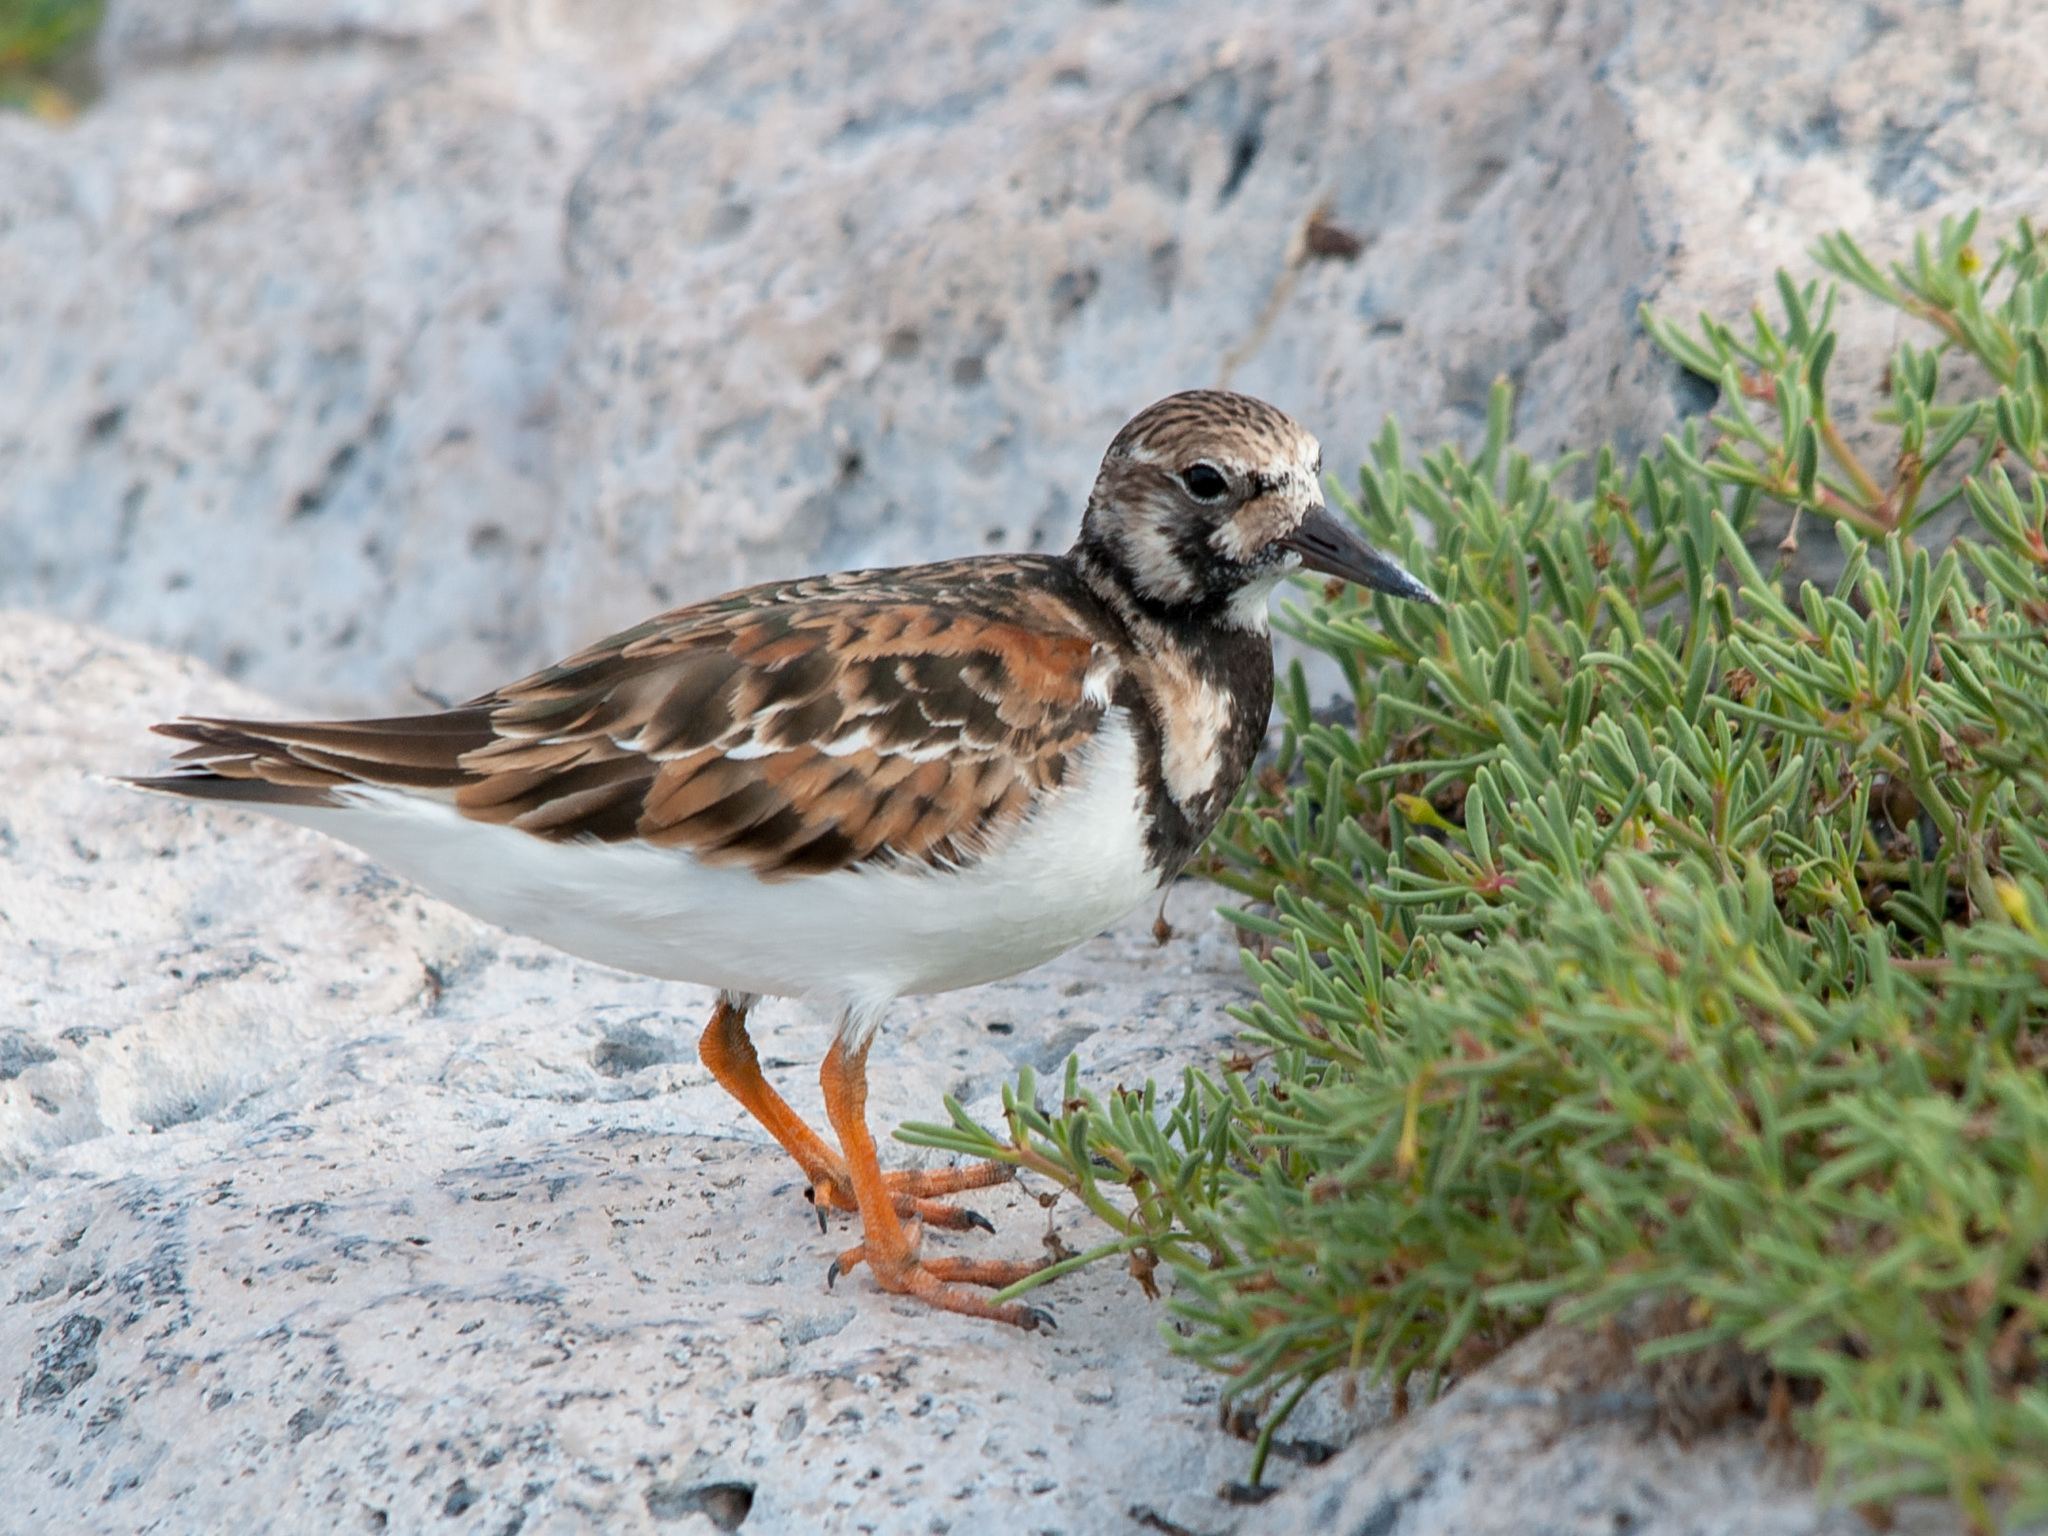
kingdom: Animalia
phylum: Chordata
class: Aves
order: Charadriiformes
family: Scolopacidae
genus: Arenaria
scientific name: Arenaria interpres
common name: Ruddy turnstone
